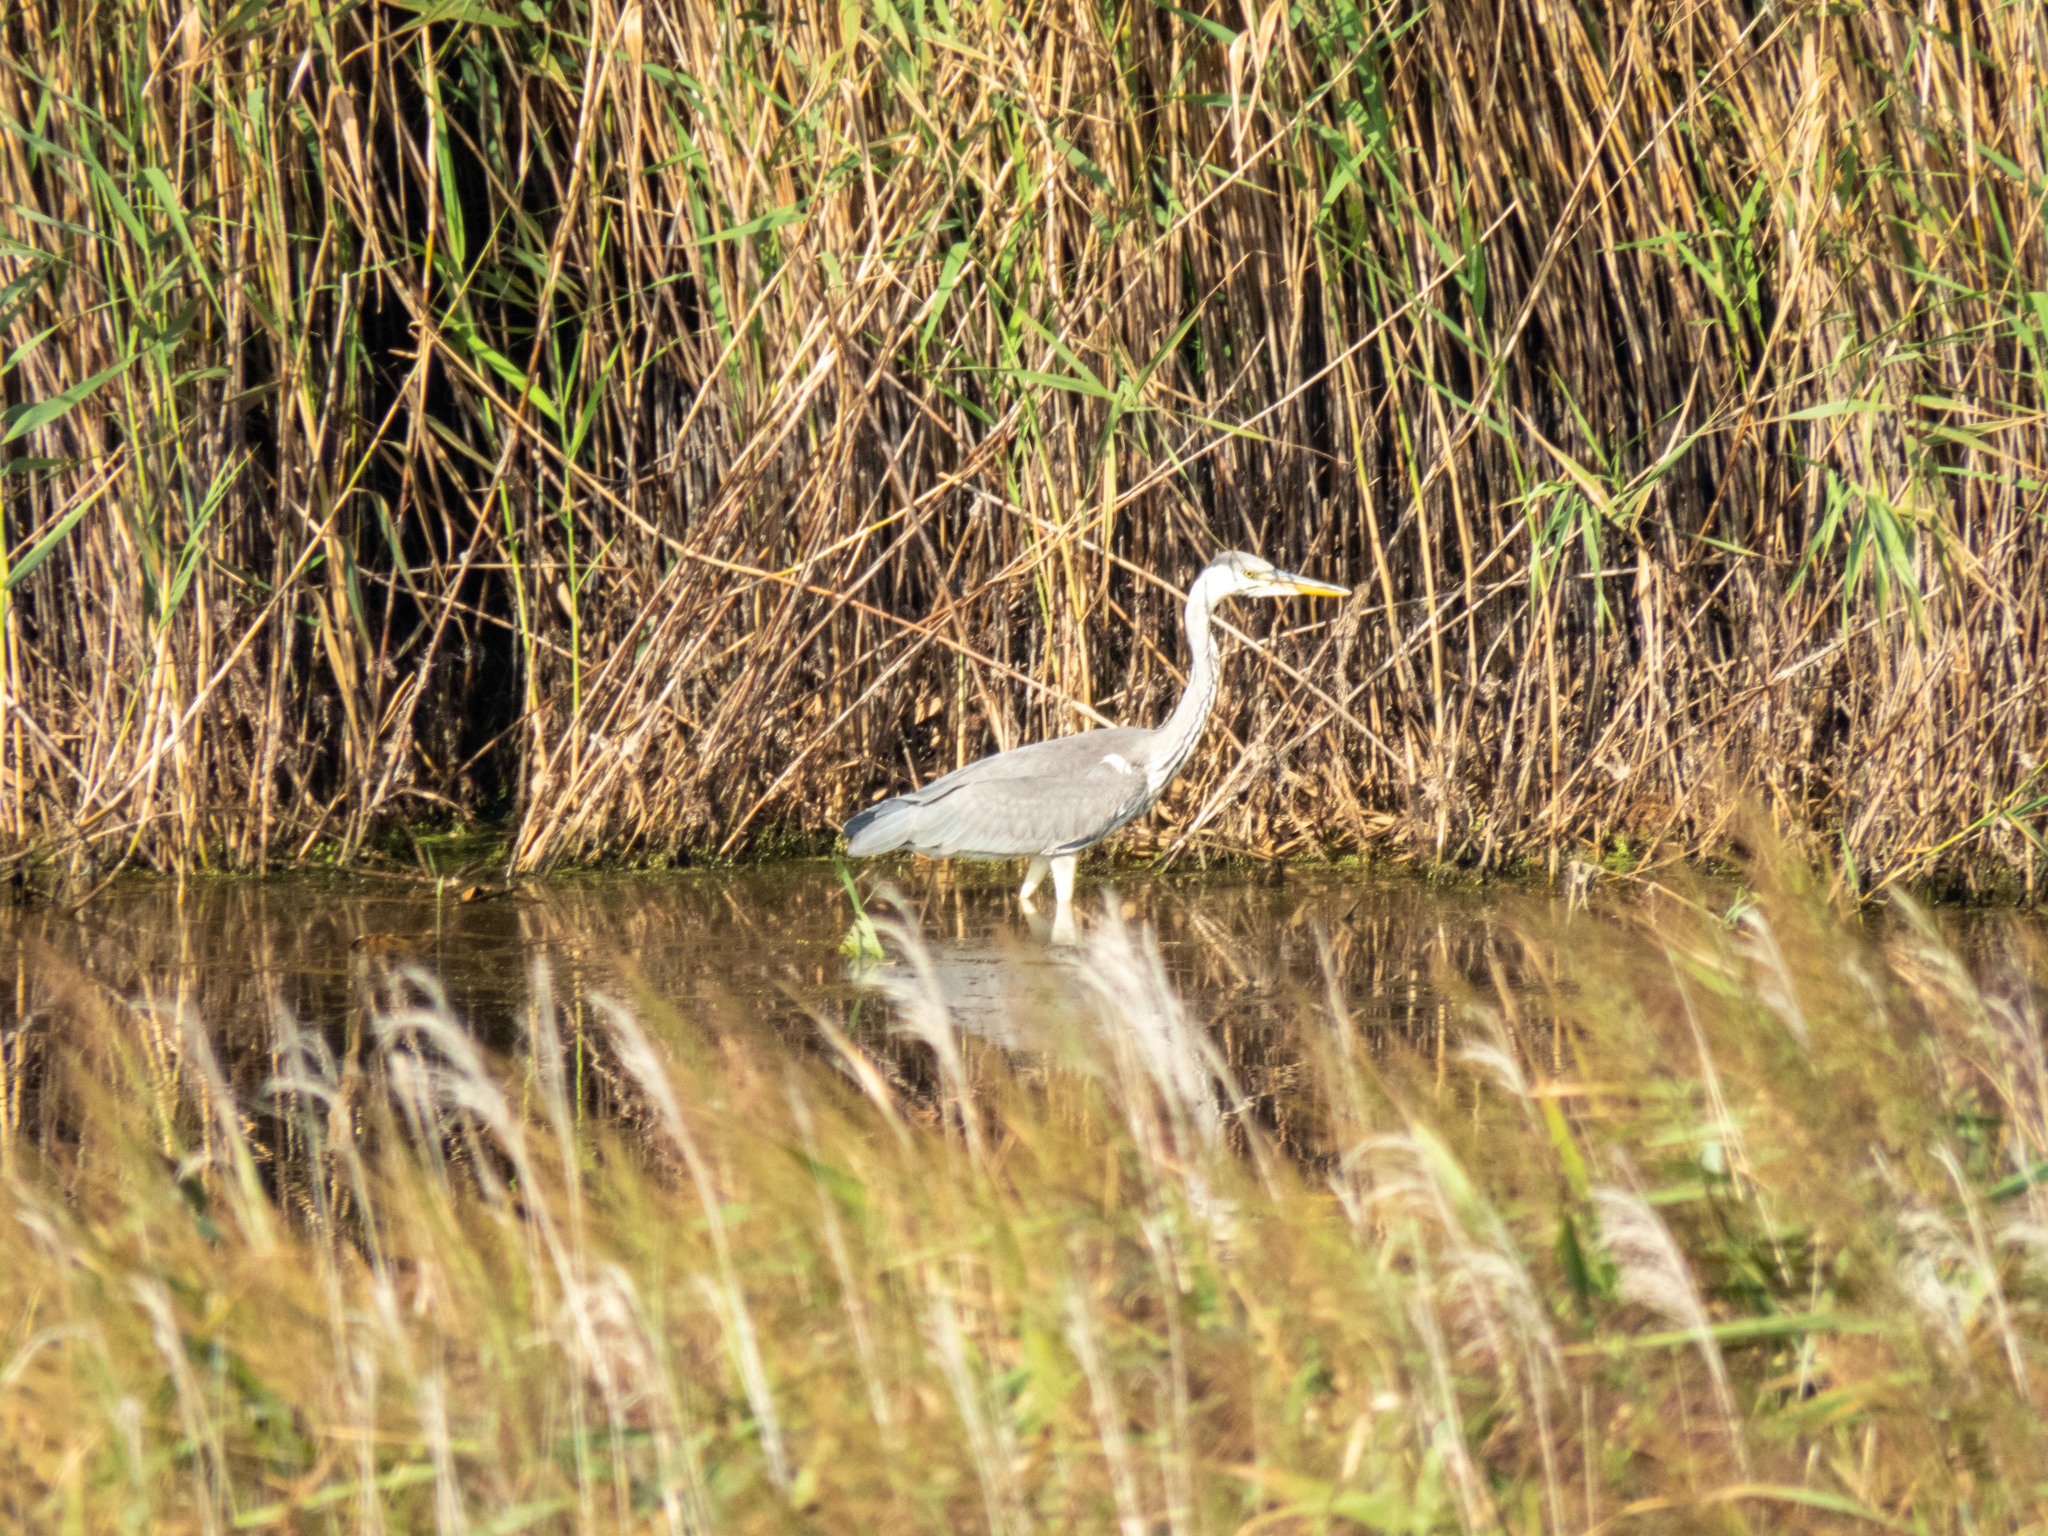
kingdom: Animalia
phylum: Chordata
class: Aves
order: Pelecaniformes
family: Ardeidae
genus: Ardea
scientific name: Ardea cinerea
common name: Grey heron
